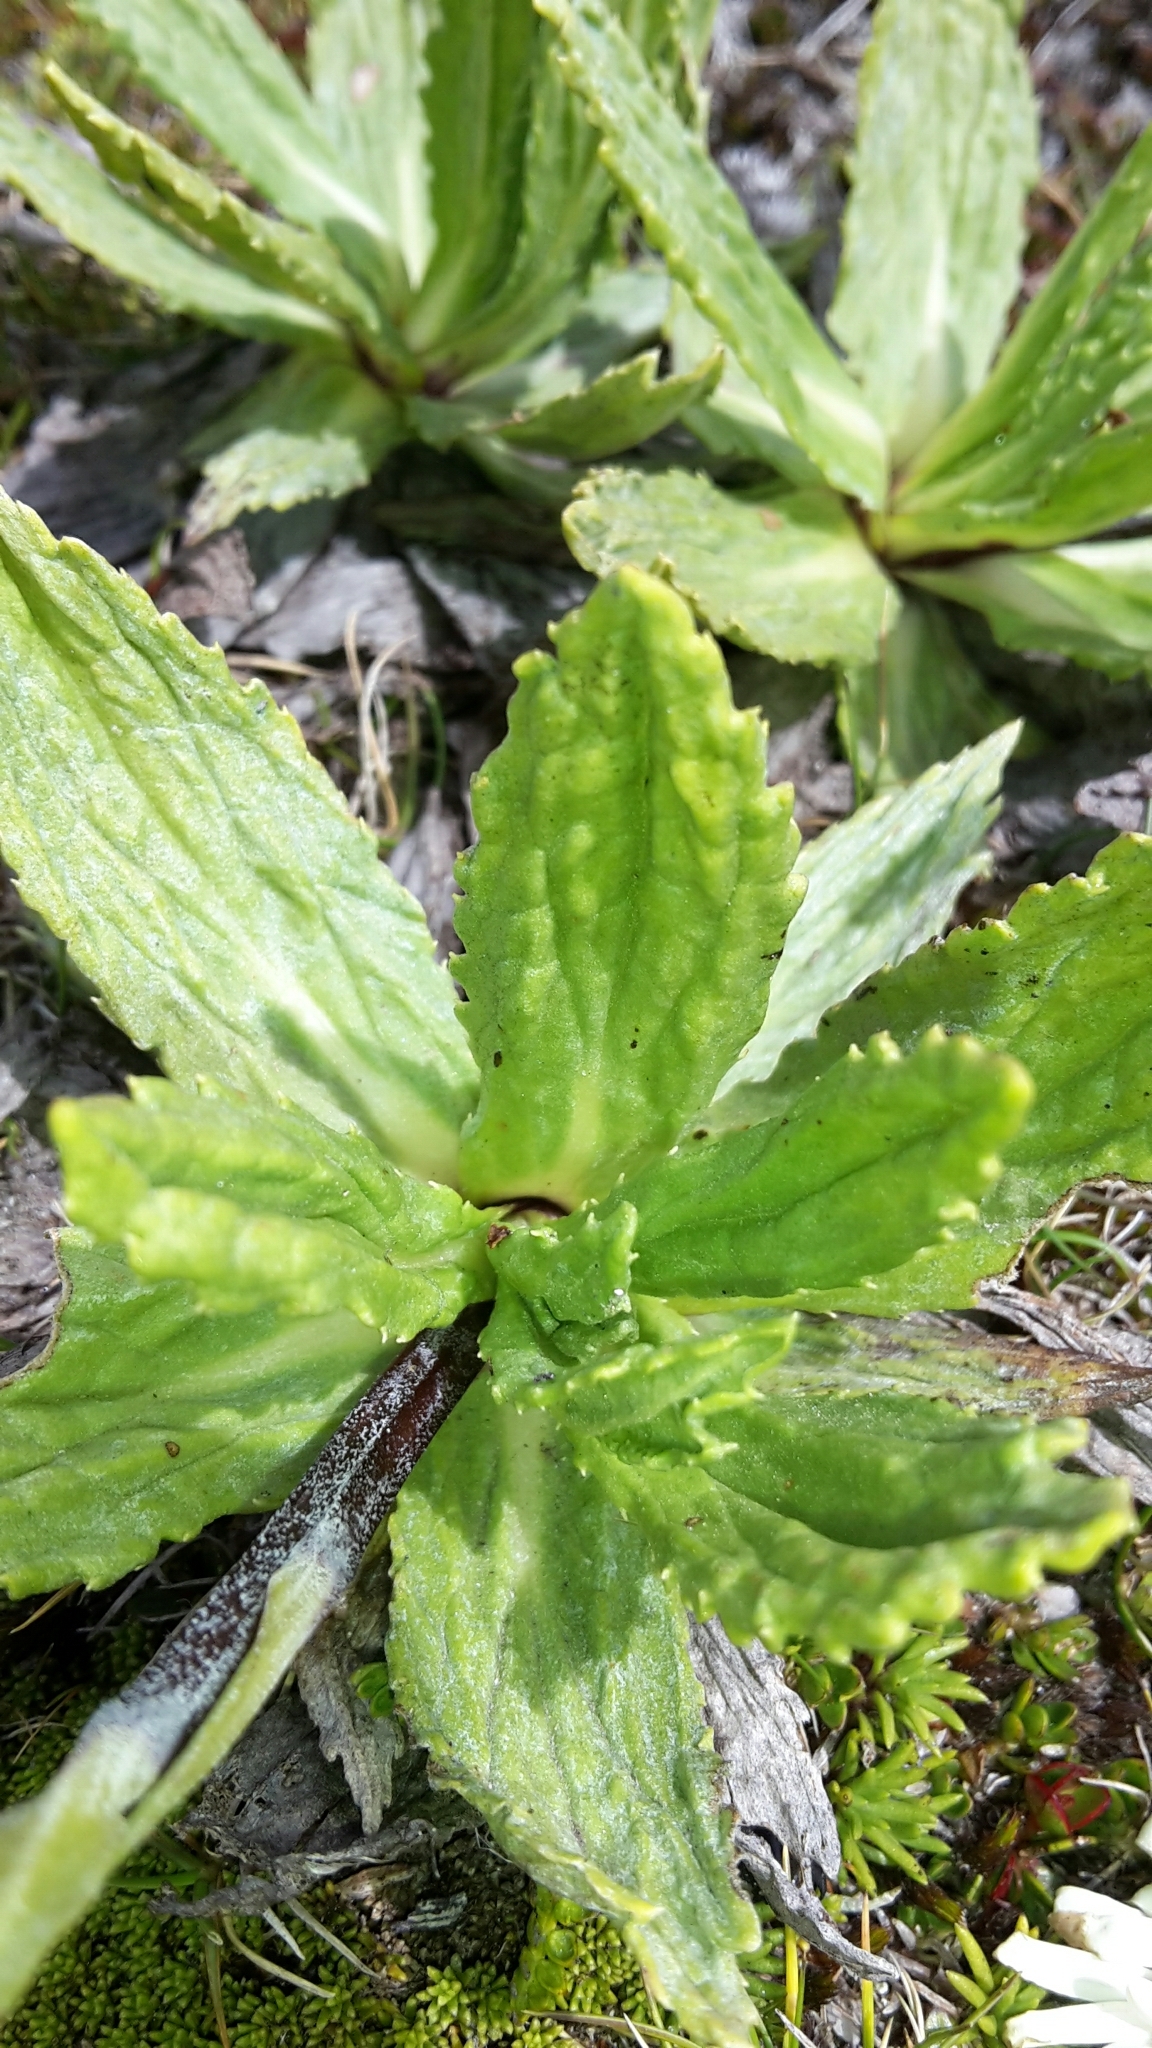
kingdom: Plantae
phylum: Tracheophyta
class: Magnoliopsida
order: Asterales
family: Asteraceae
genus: Celmisia
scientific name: Celmisia prorepens
